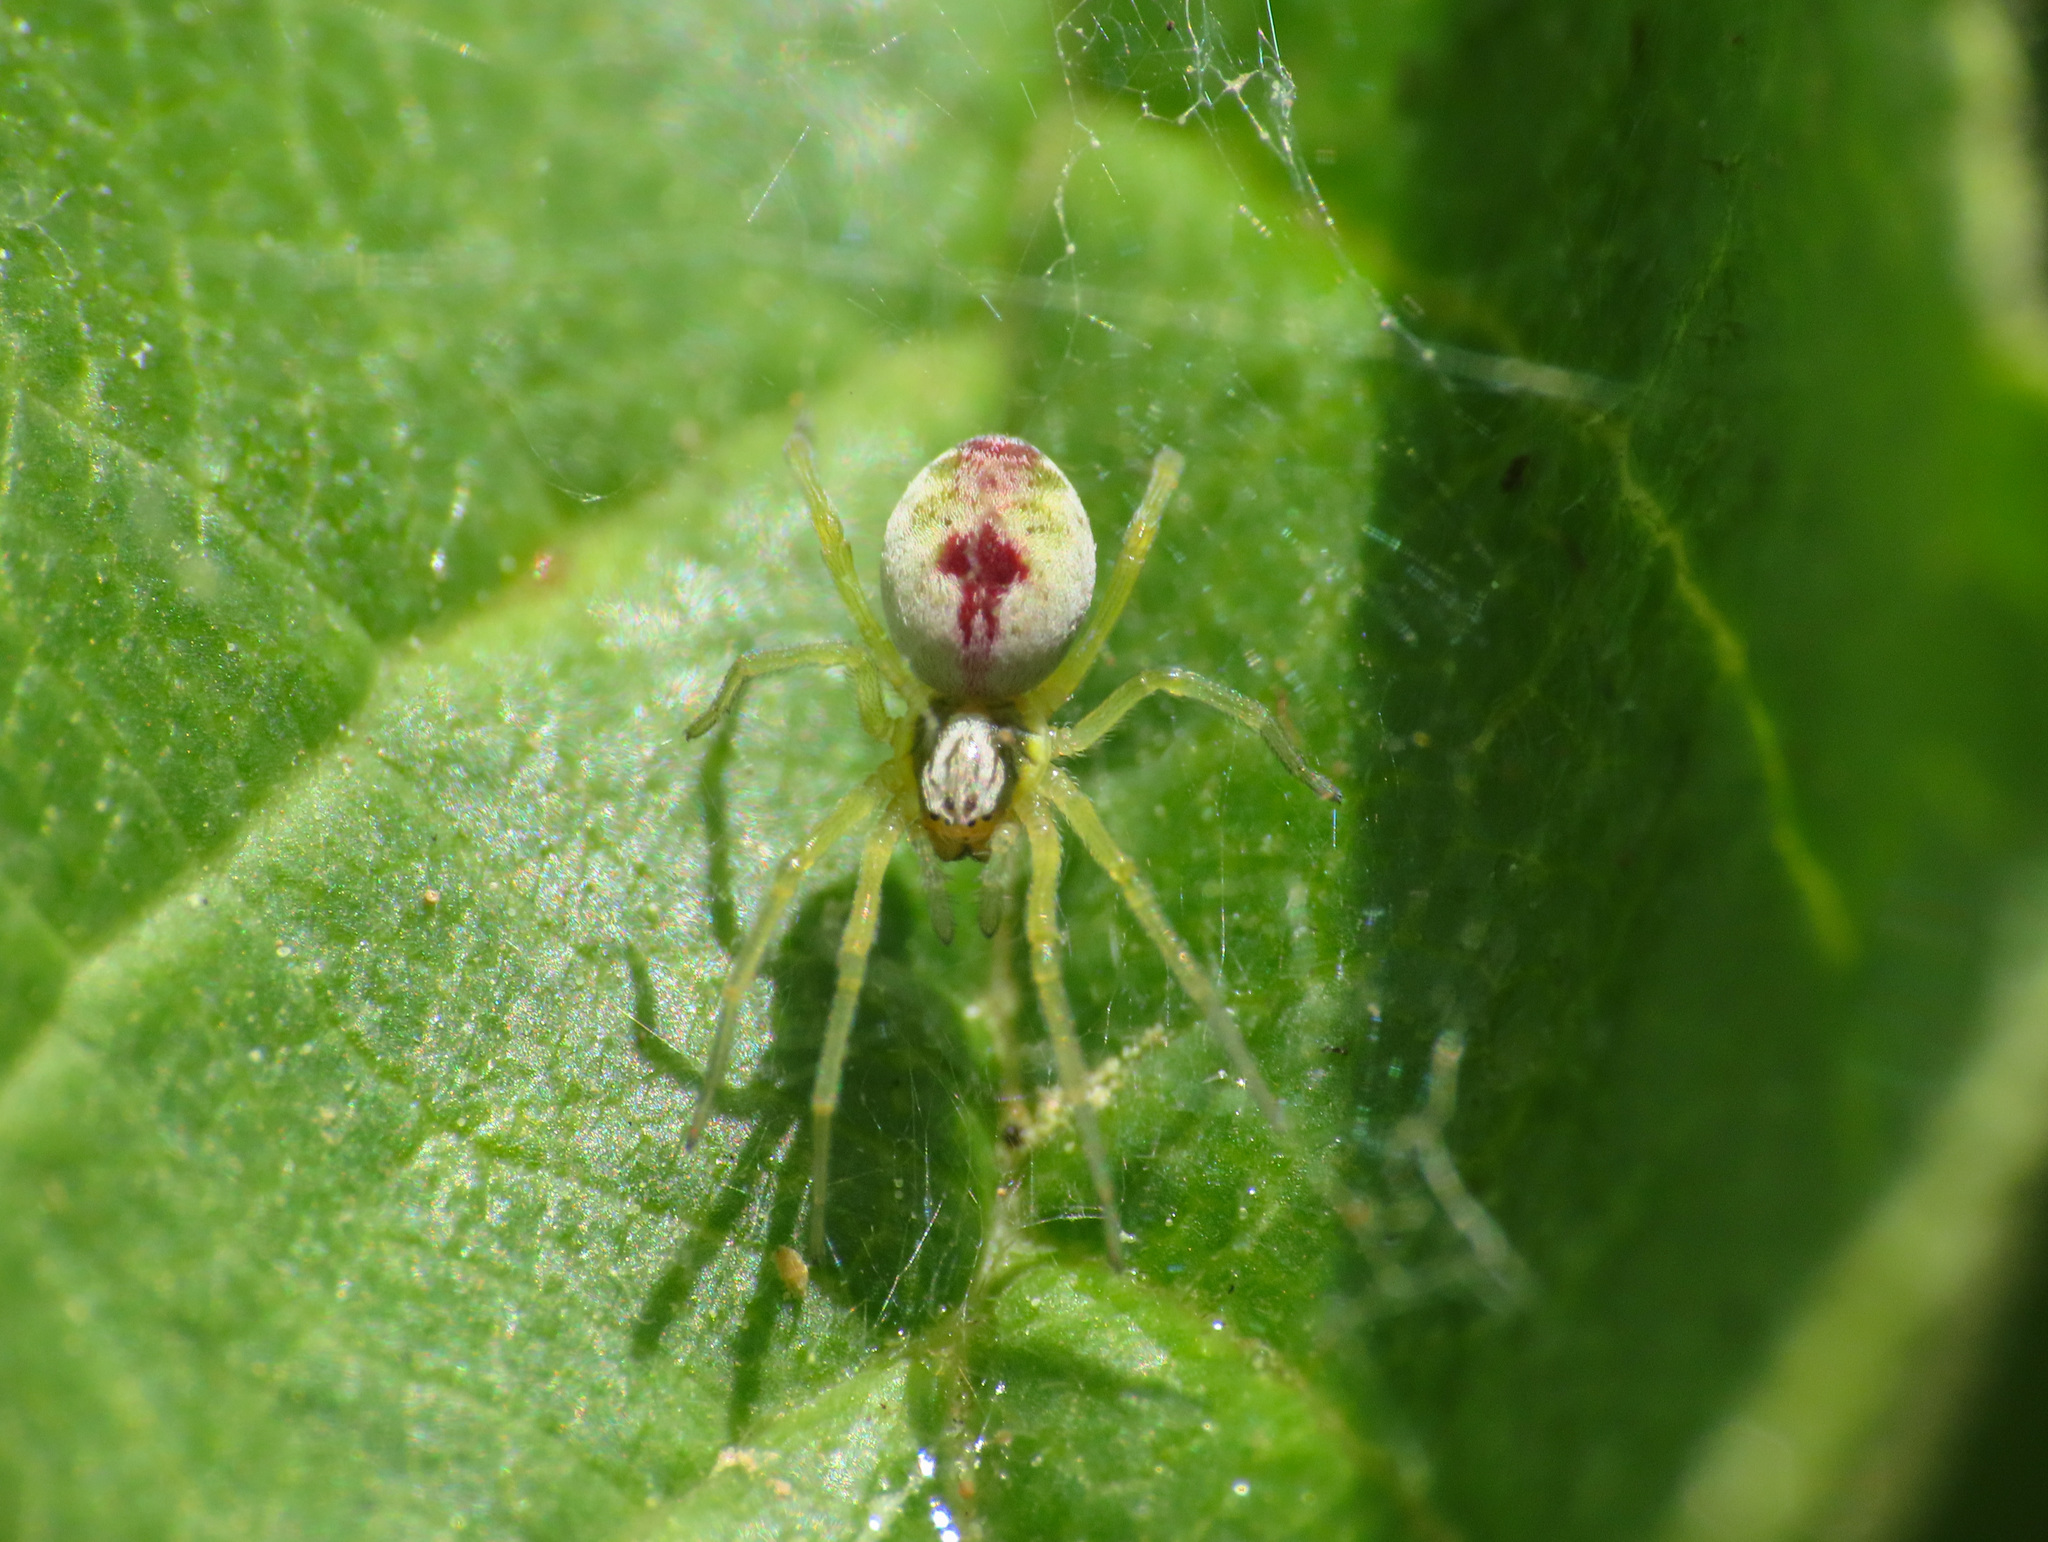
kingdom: Animalia
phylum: Arthropoda
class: Arachnida
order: Araneae
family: Dictynidae
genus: Nigma
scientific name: Nigma puella
